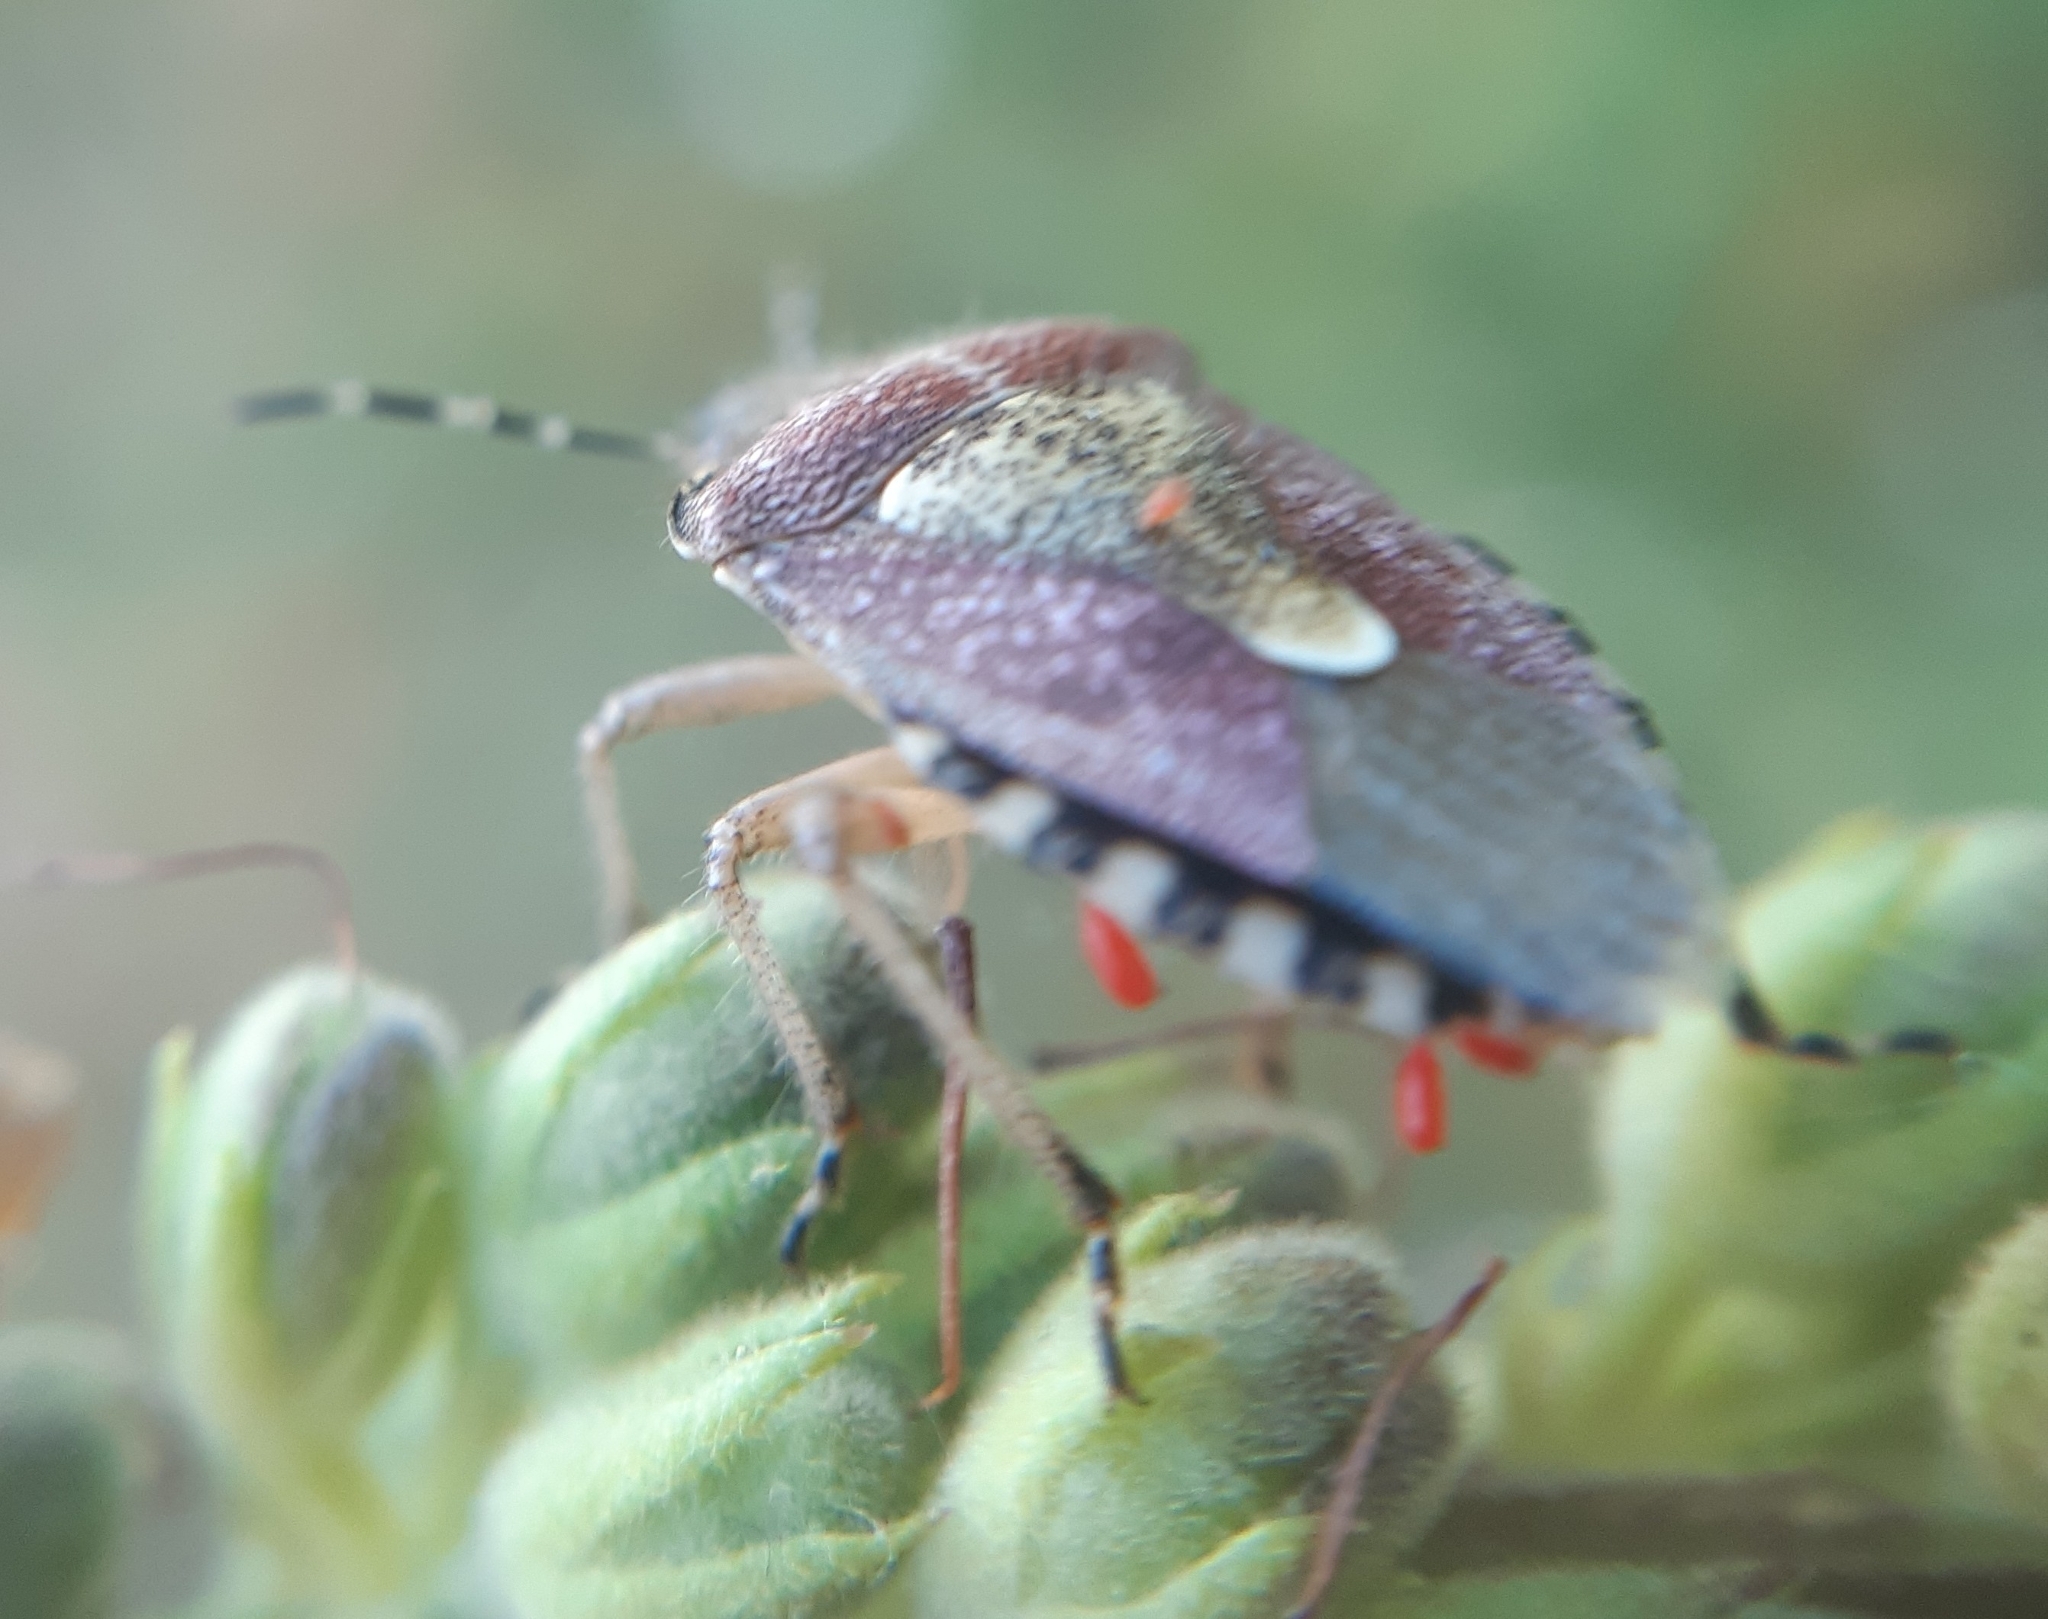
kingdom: Animalia
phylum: Arthropoda
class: Insecta
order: Hemiptera
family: Pentatomidae
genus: Dolycoris
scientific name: Dolycoris baccarum
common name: Sloe bug
